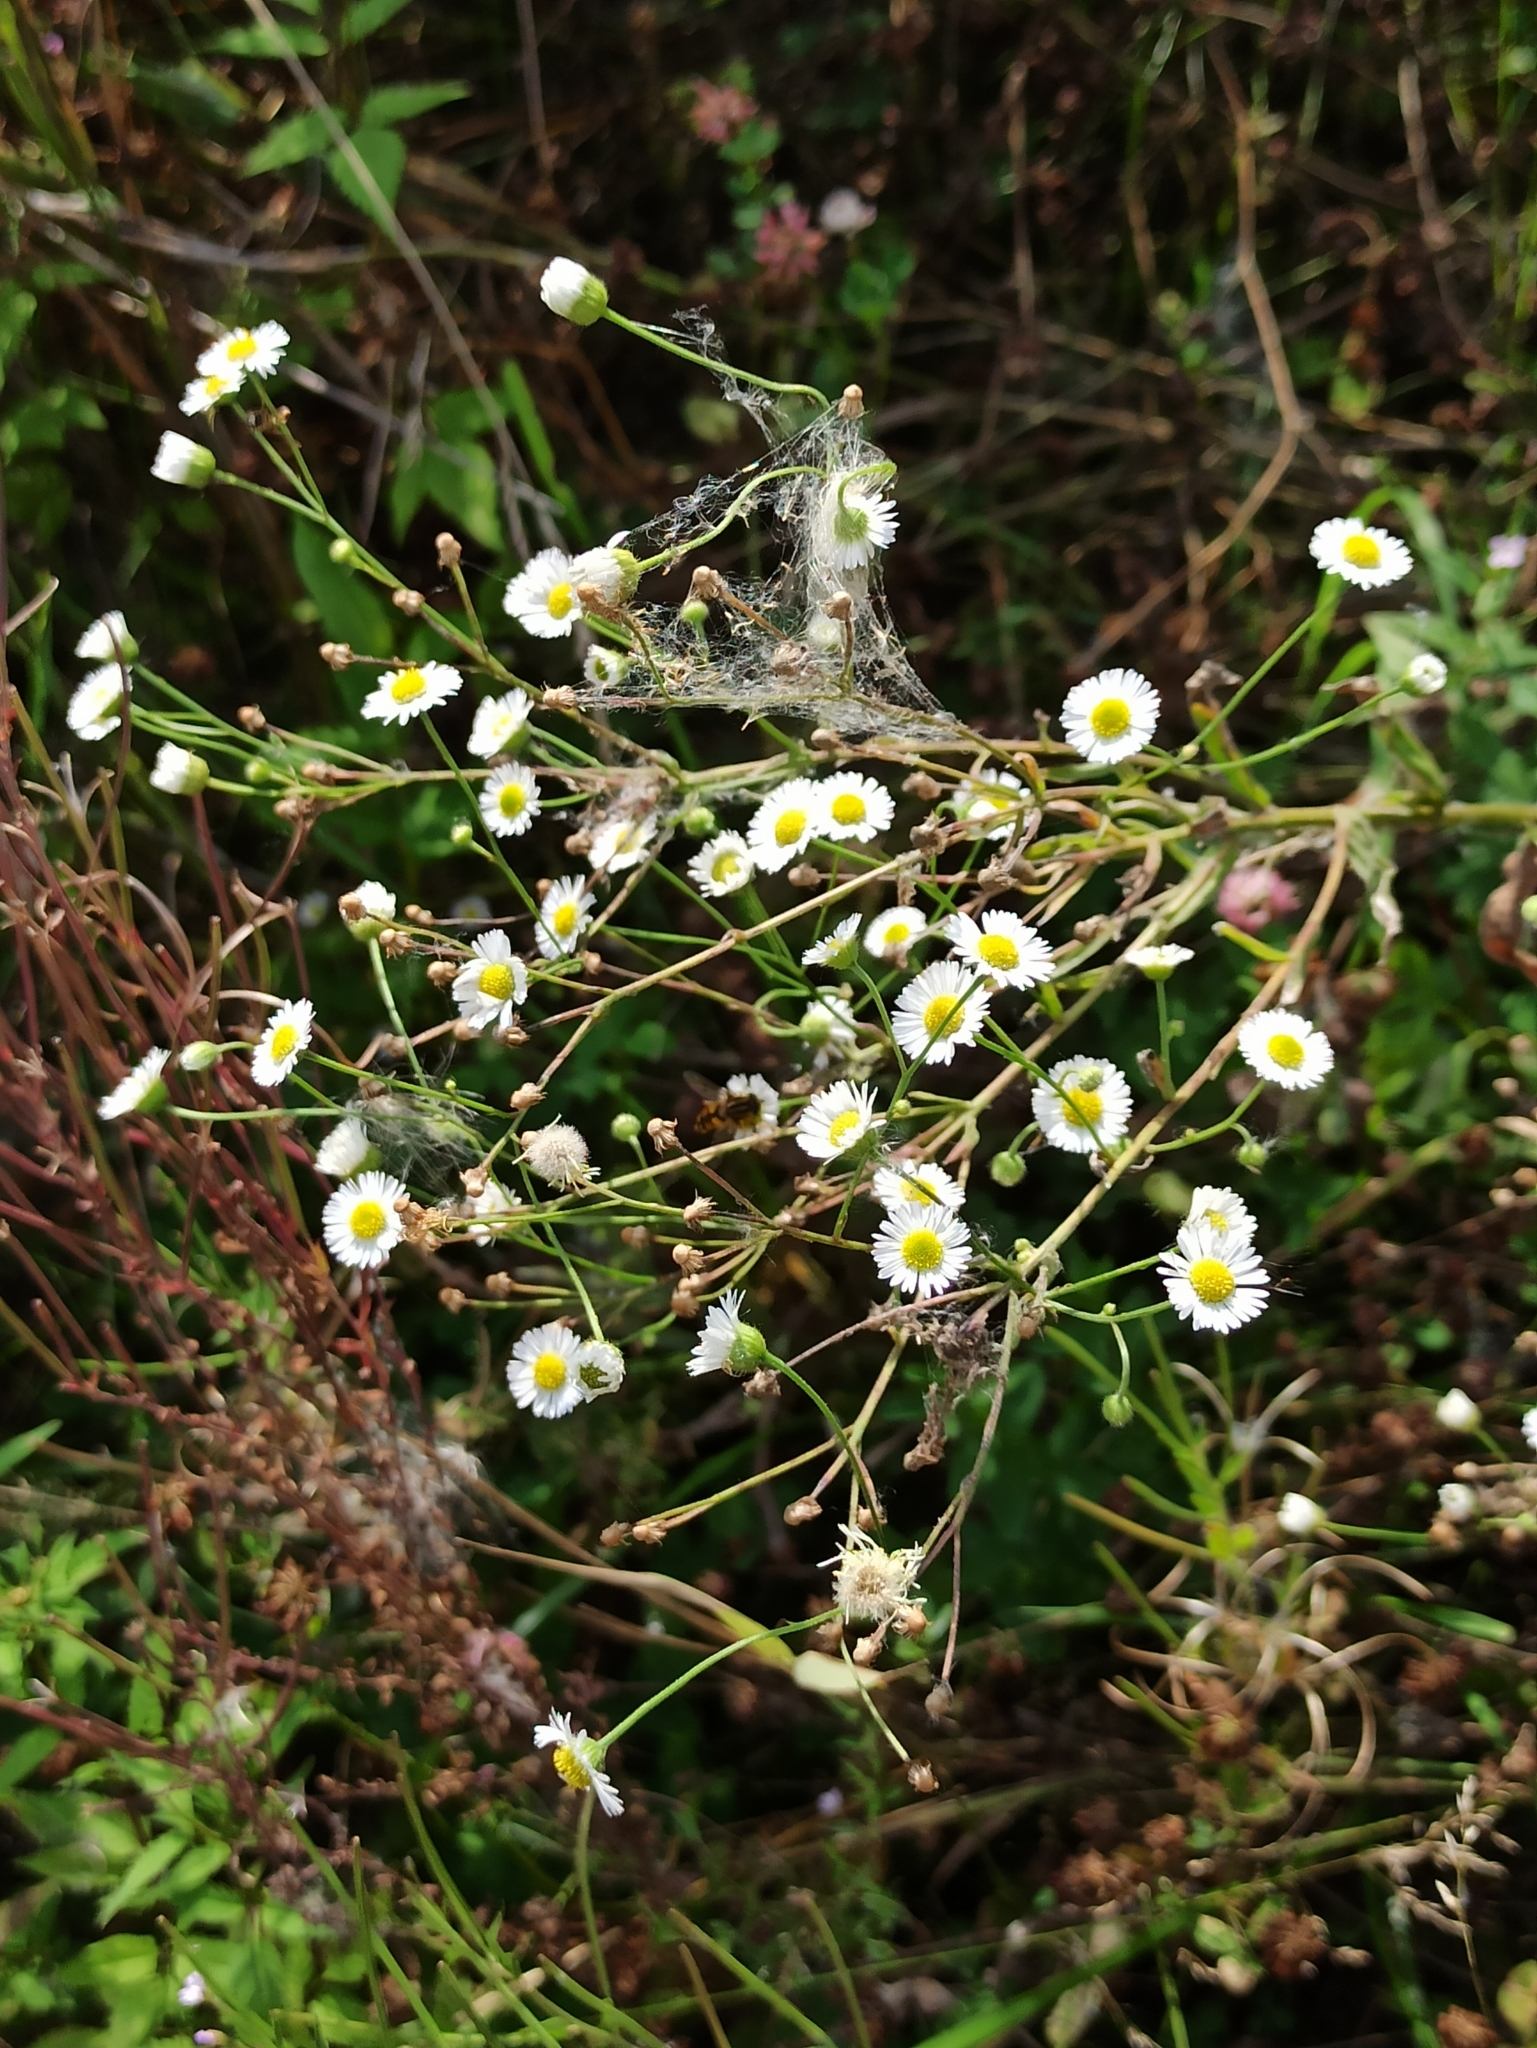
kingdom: Plantae
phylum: Tracheophyta
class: Magnoliopsida
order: Asterales
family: Asteraceae
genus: Erigeron
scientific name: Erigeron annuus
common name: Tall fleabane
